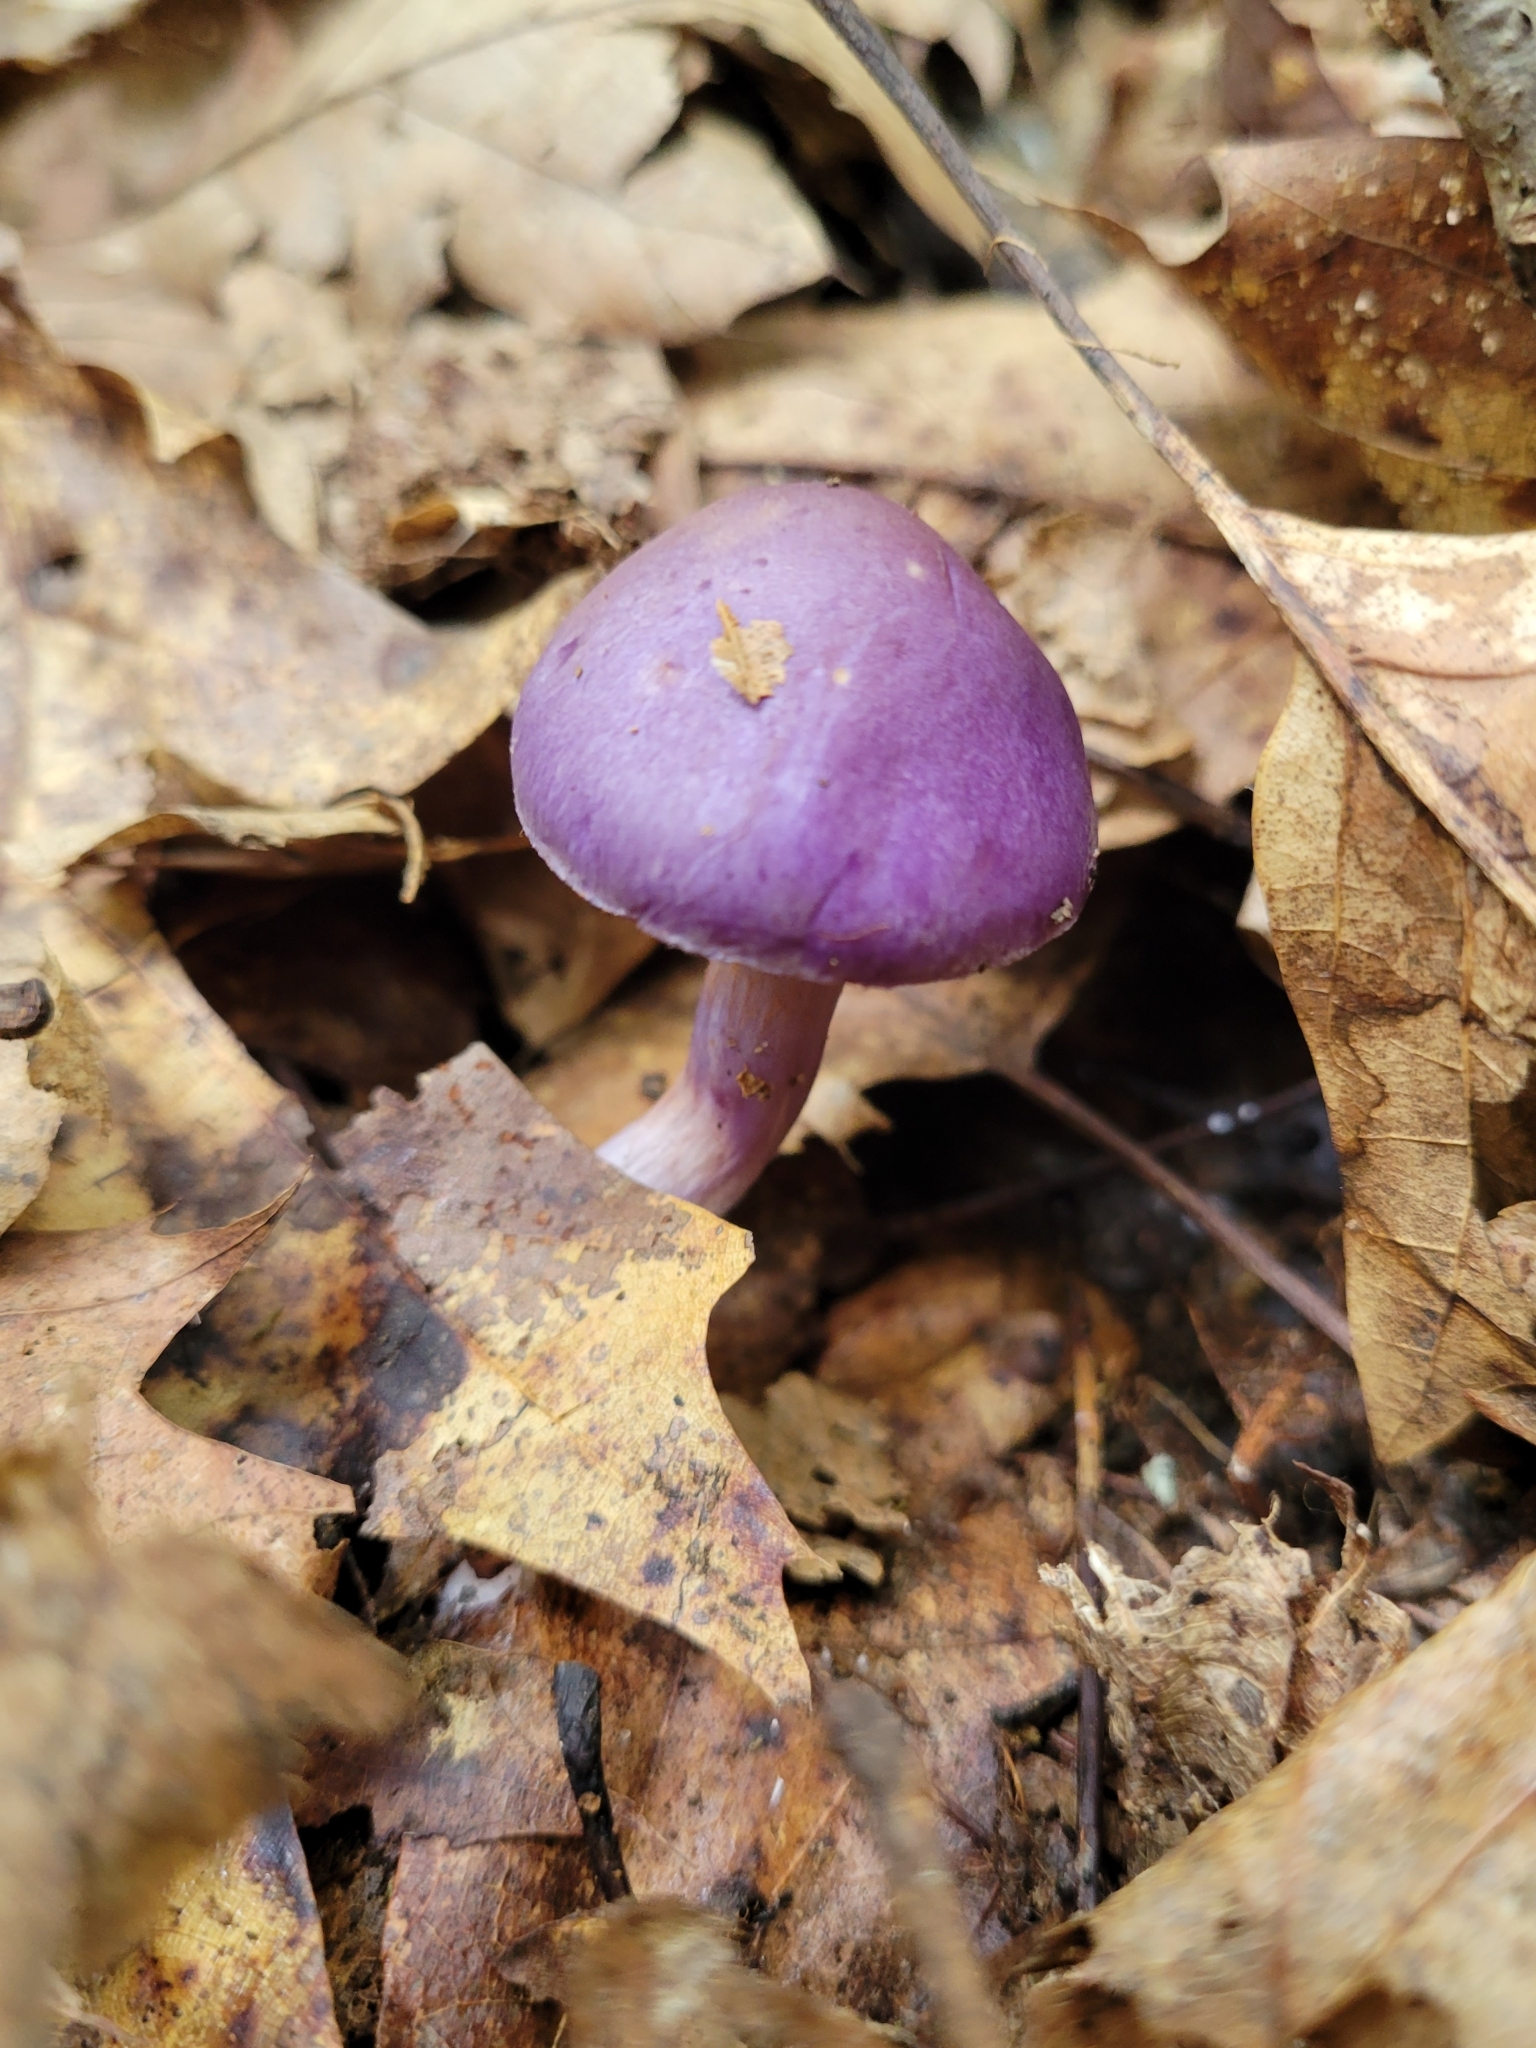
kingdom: Fungi
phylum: Basidiomycota
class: Agaricomycetes
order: Agaricales
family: Cortinariaceae
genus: Cortinarius
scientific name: Cortinarius iodes
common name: Viscid violet cort
